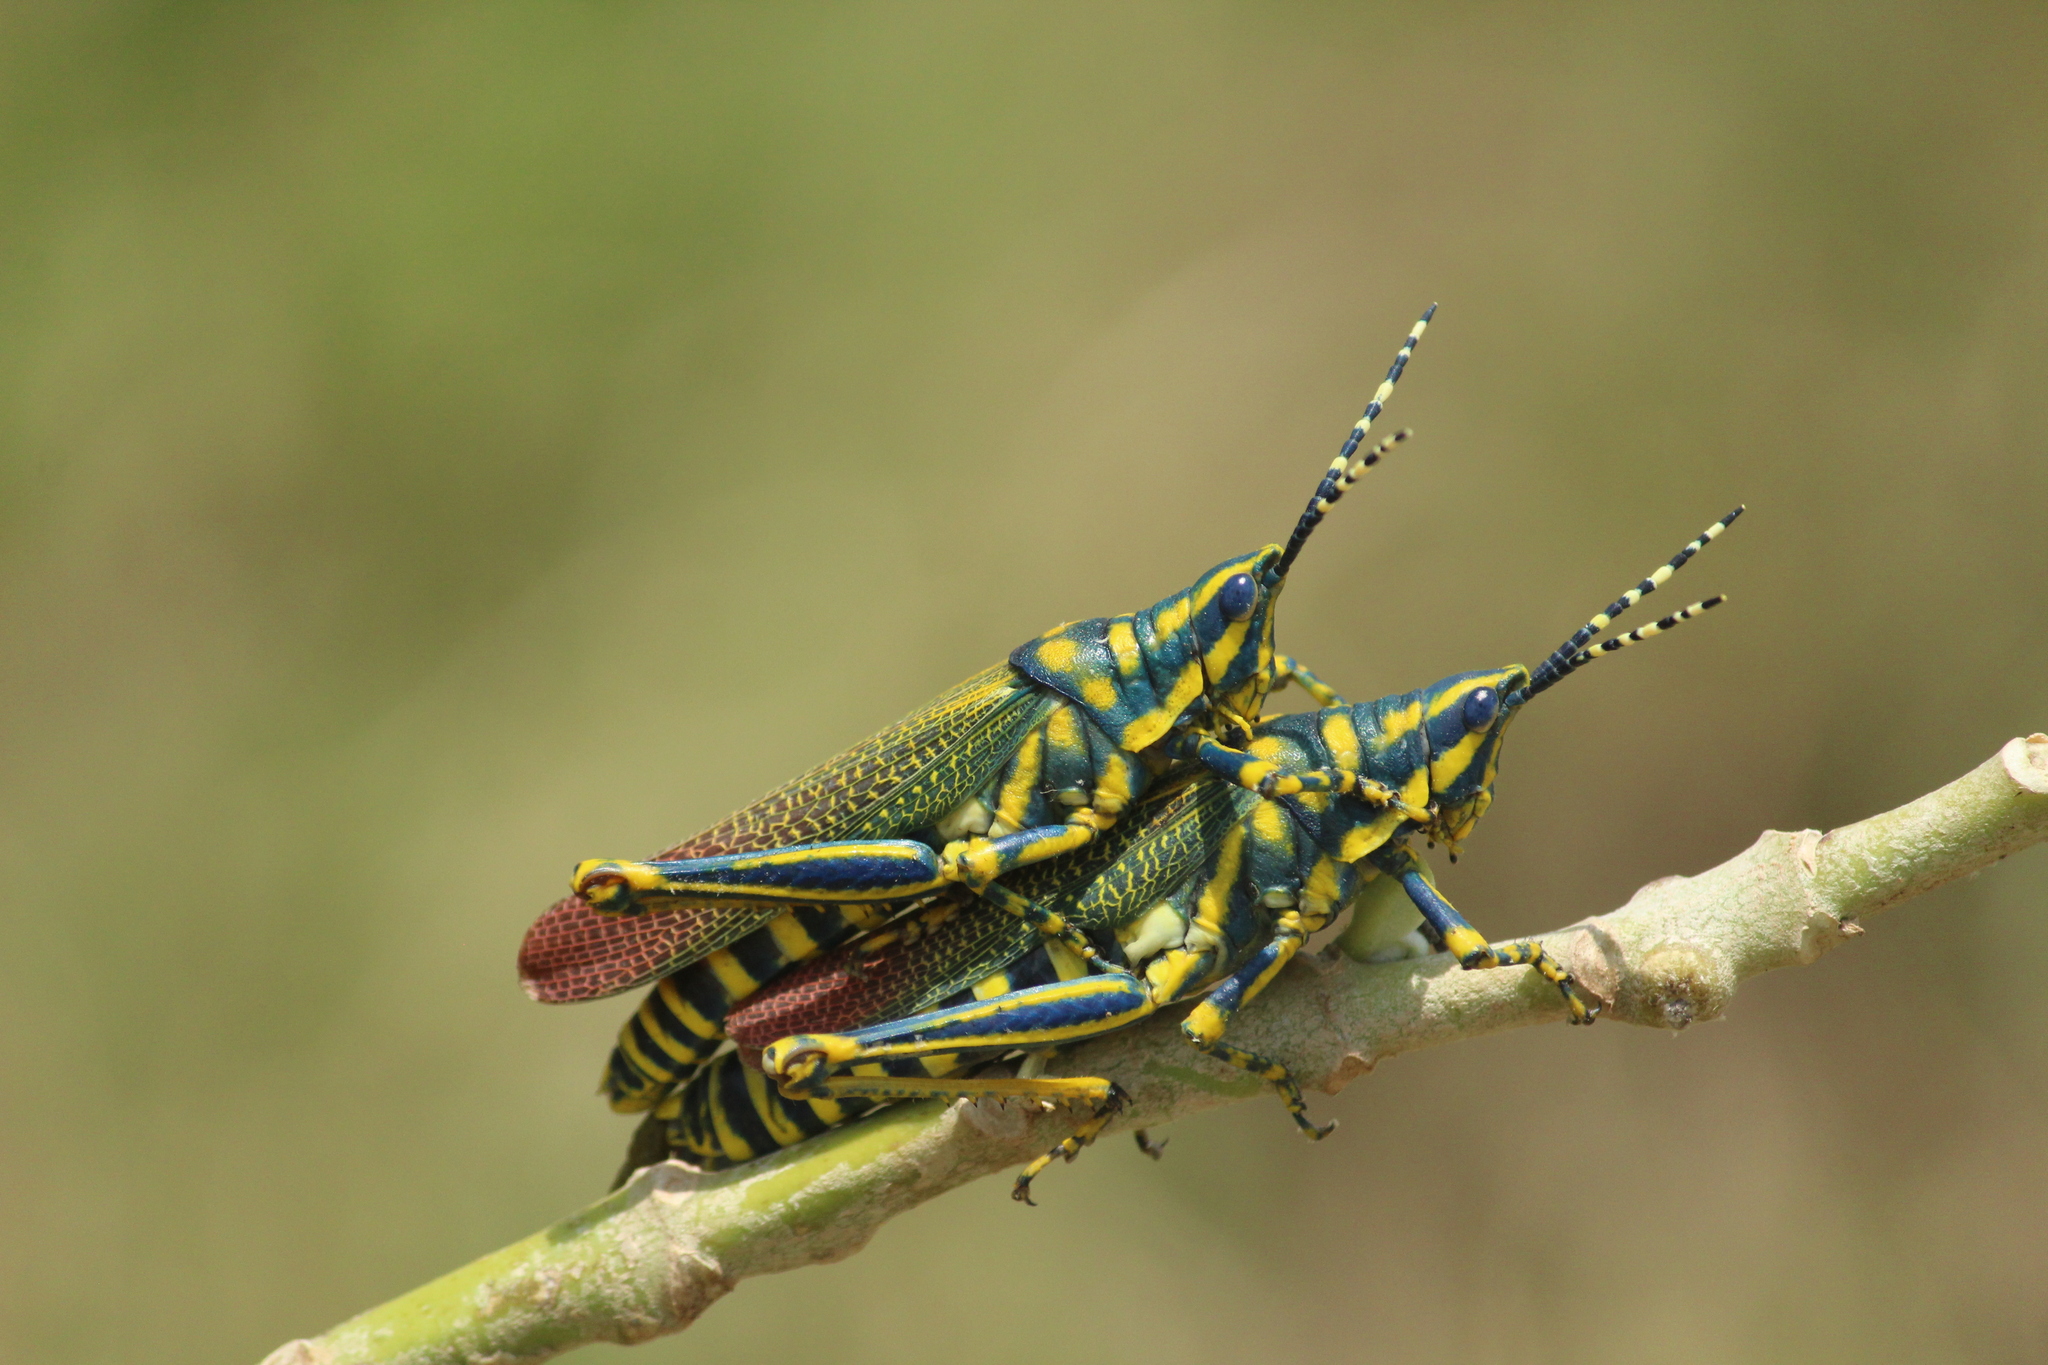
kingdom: Animalia
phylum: Arthropoda
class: Insecta
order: Orthoptera
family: Pyrgomorphidae
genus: Poekilocerus
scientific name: Poekilocerus pictus
